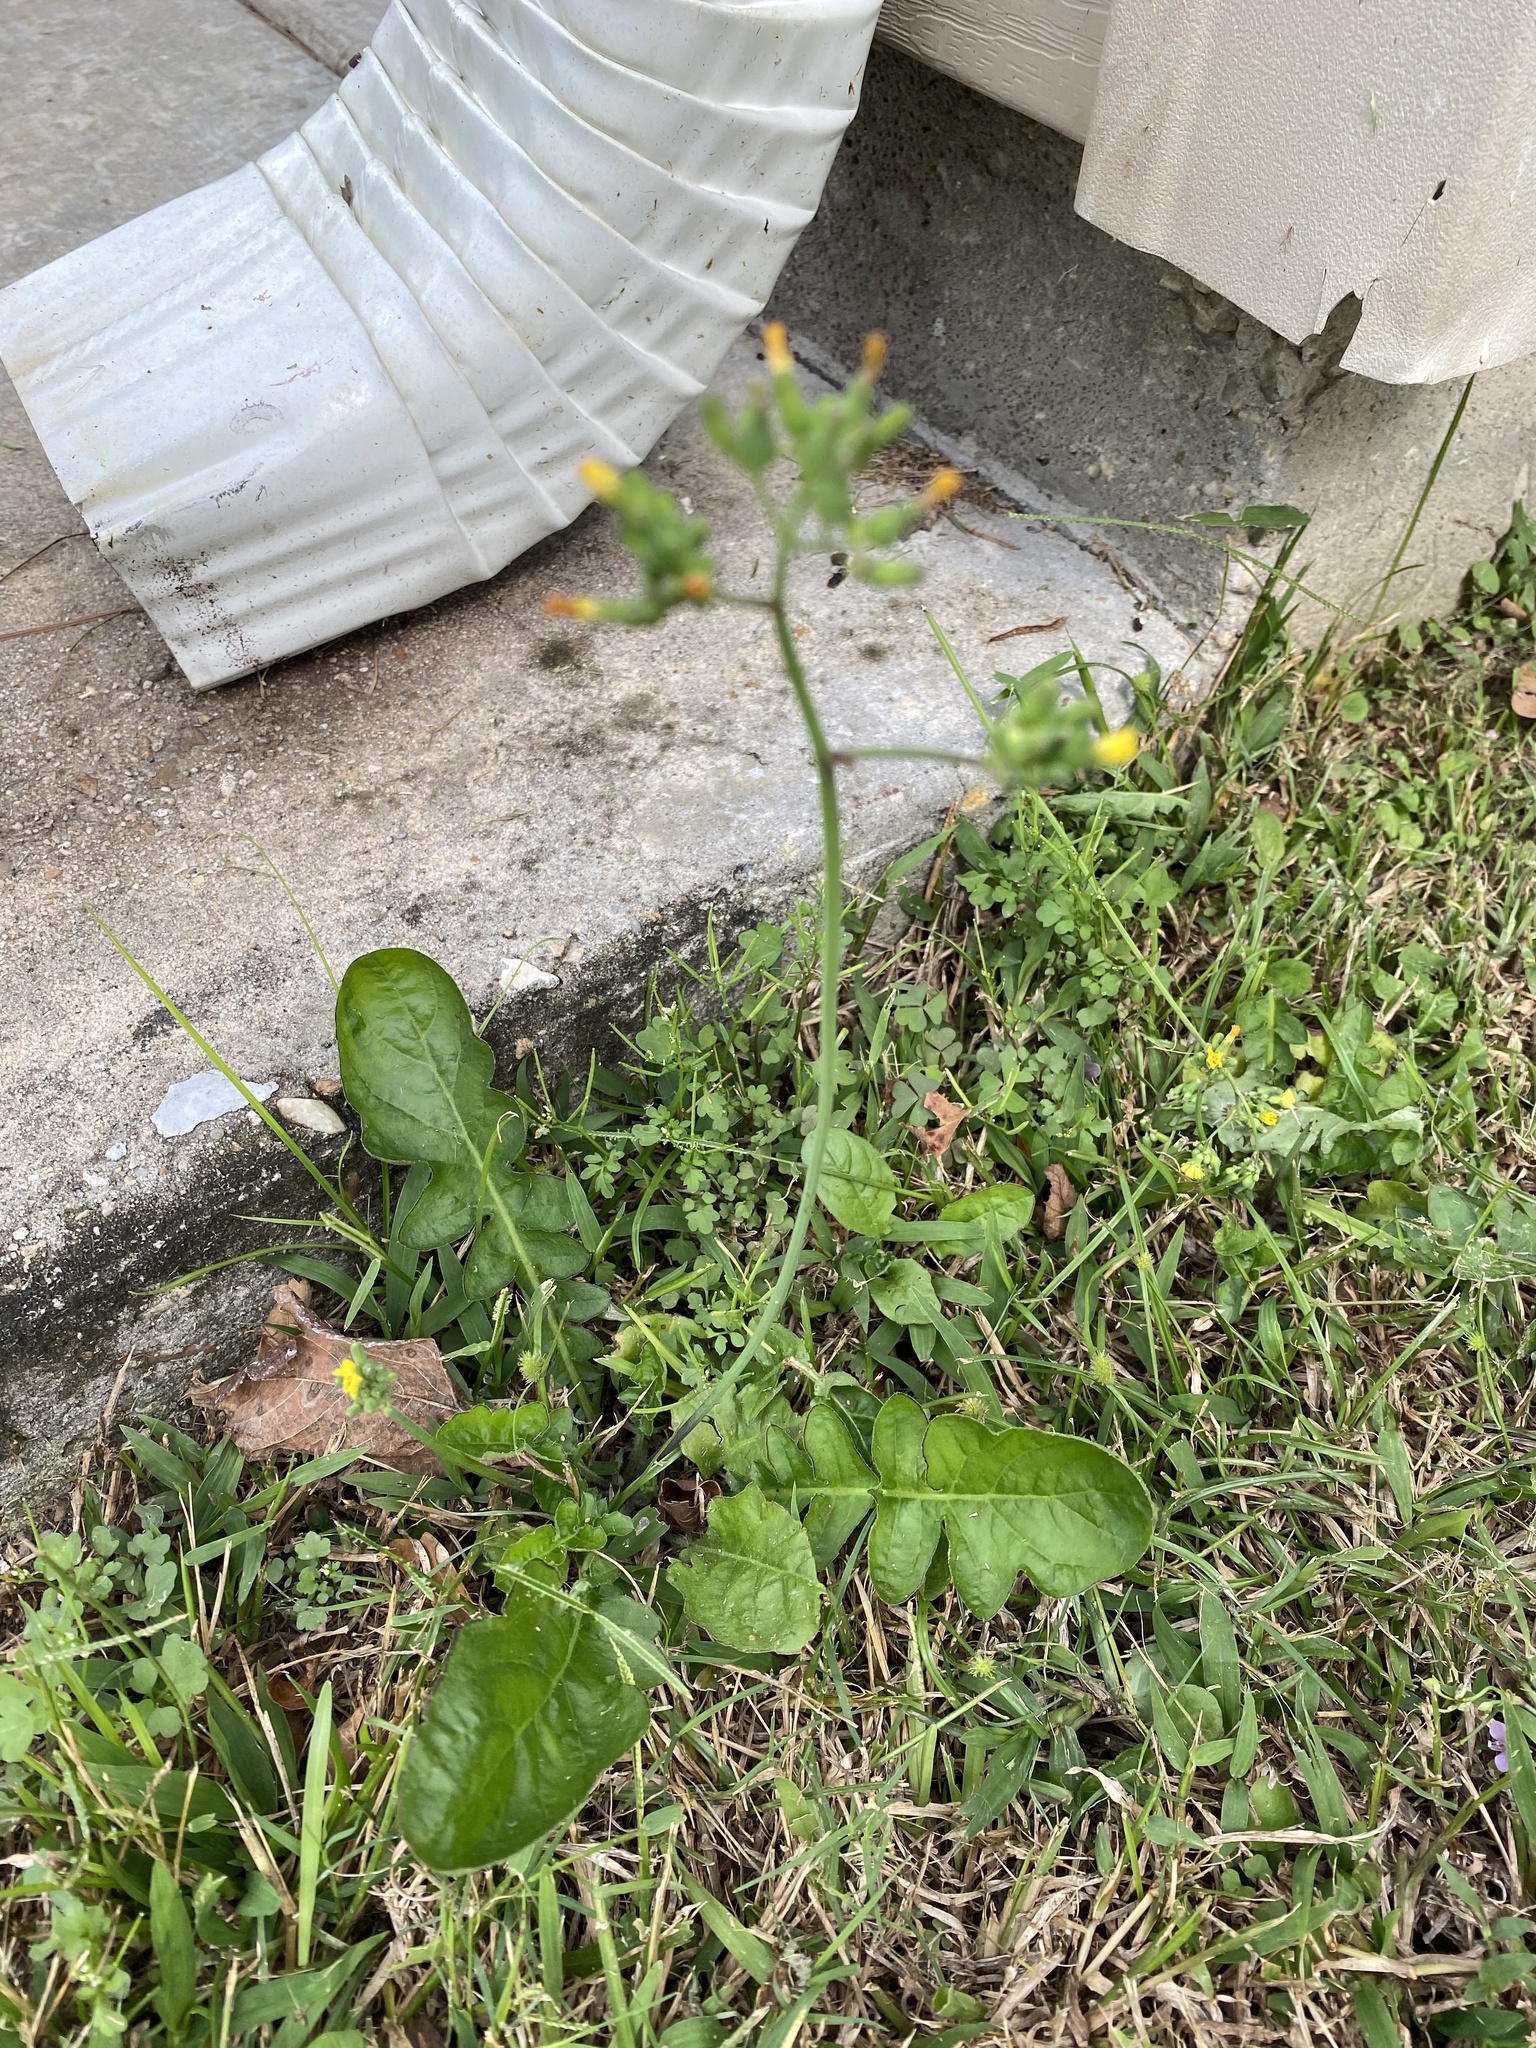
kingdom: Plantae
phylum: Tracheophyta
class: Magnoliopsida
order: Asterales
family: Asteraceae
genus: Youngia
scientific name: Youngia japonica
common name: Oriental false hawksbeard
